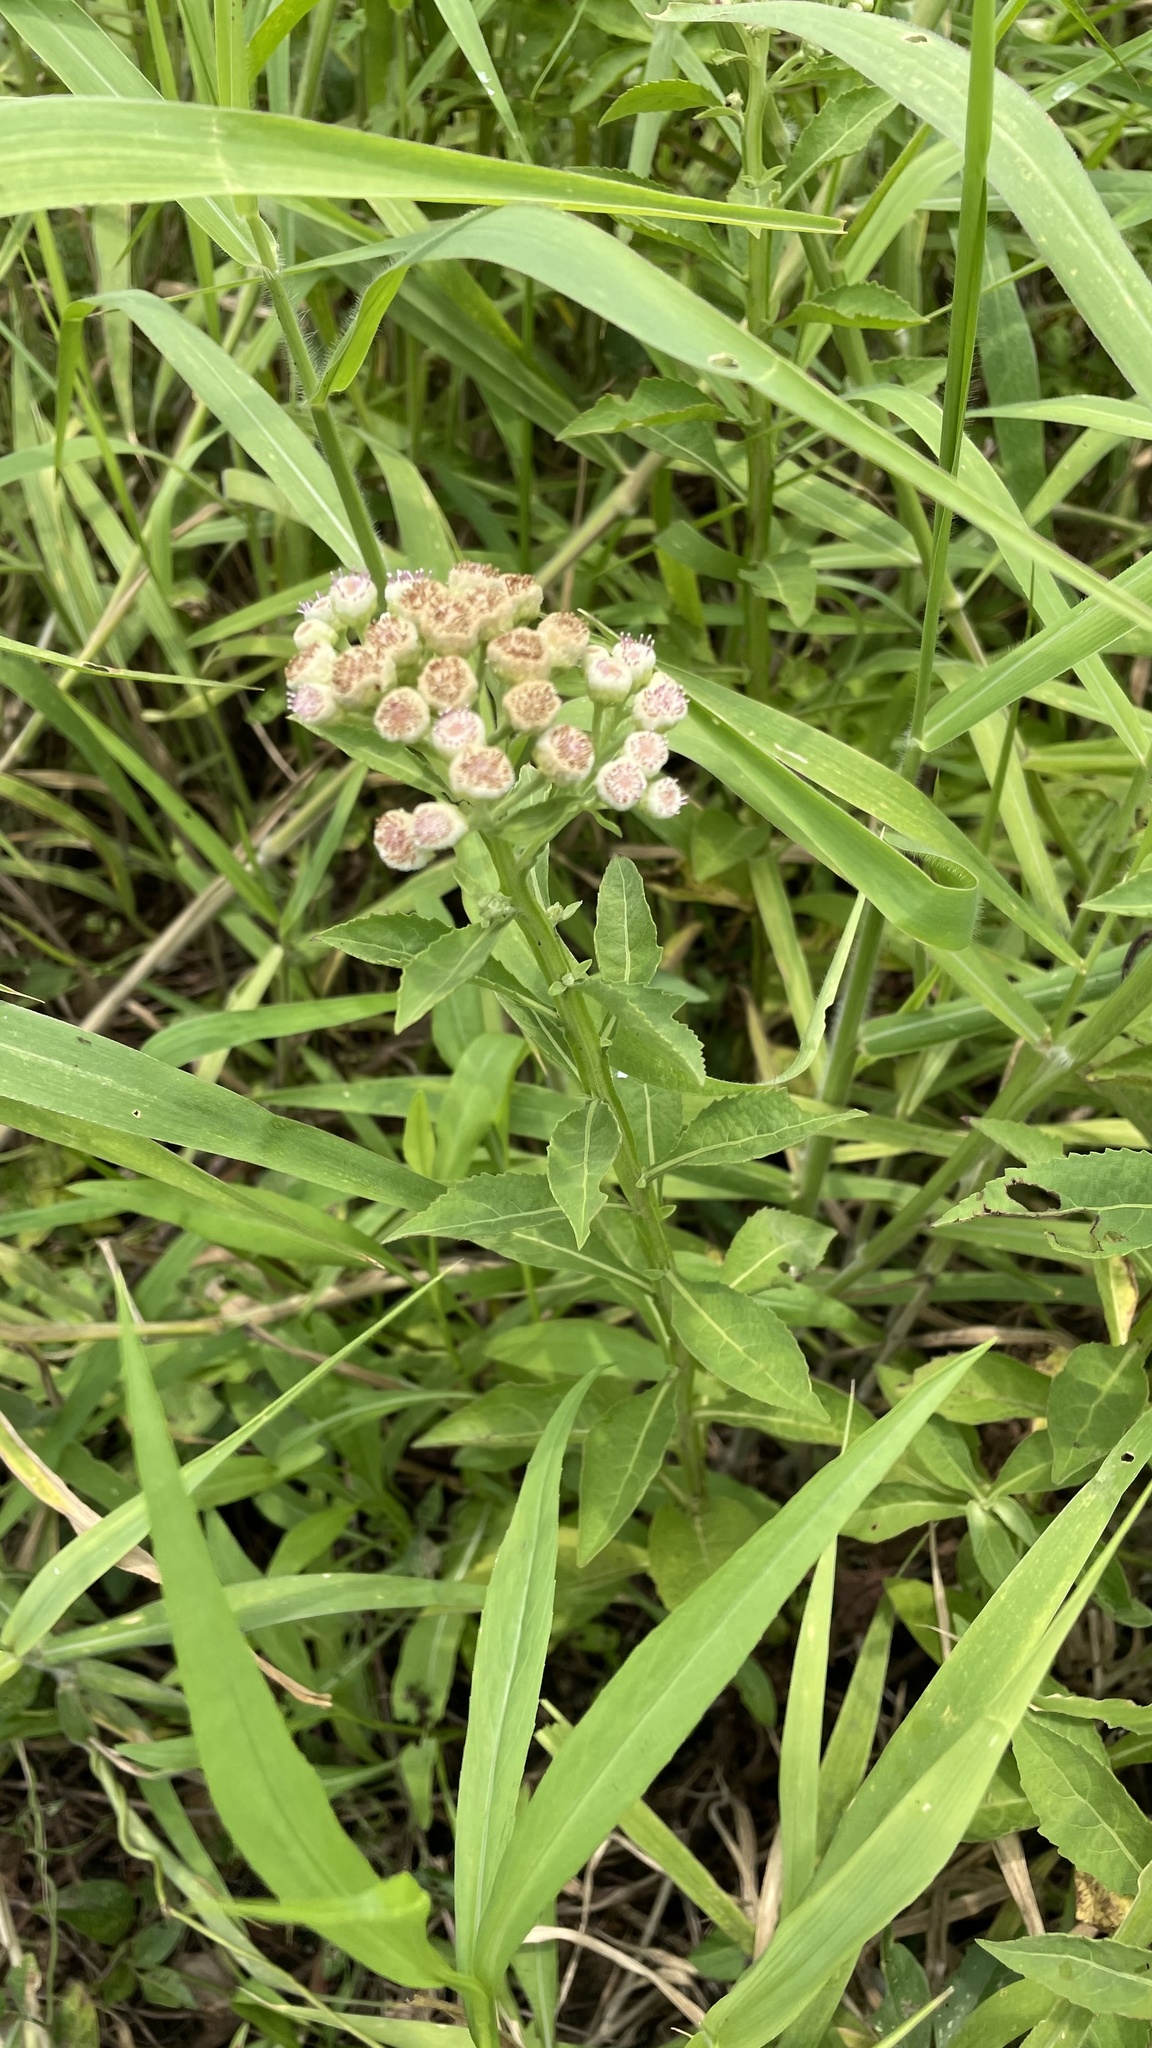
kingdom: Plantae
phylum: Tracheophyta
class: Magnoliopsida
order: Asterales
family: Asteraceae
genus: Pluchea
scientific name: Pluchea sagittalis
